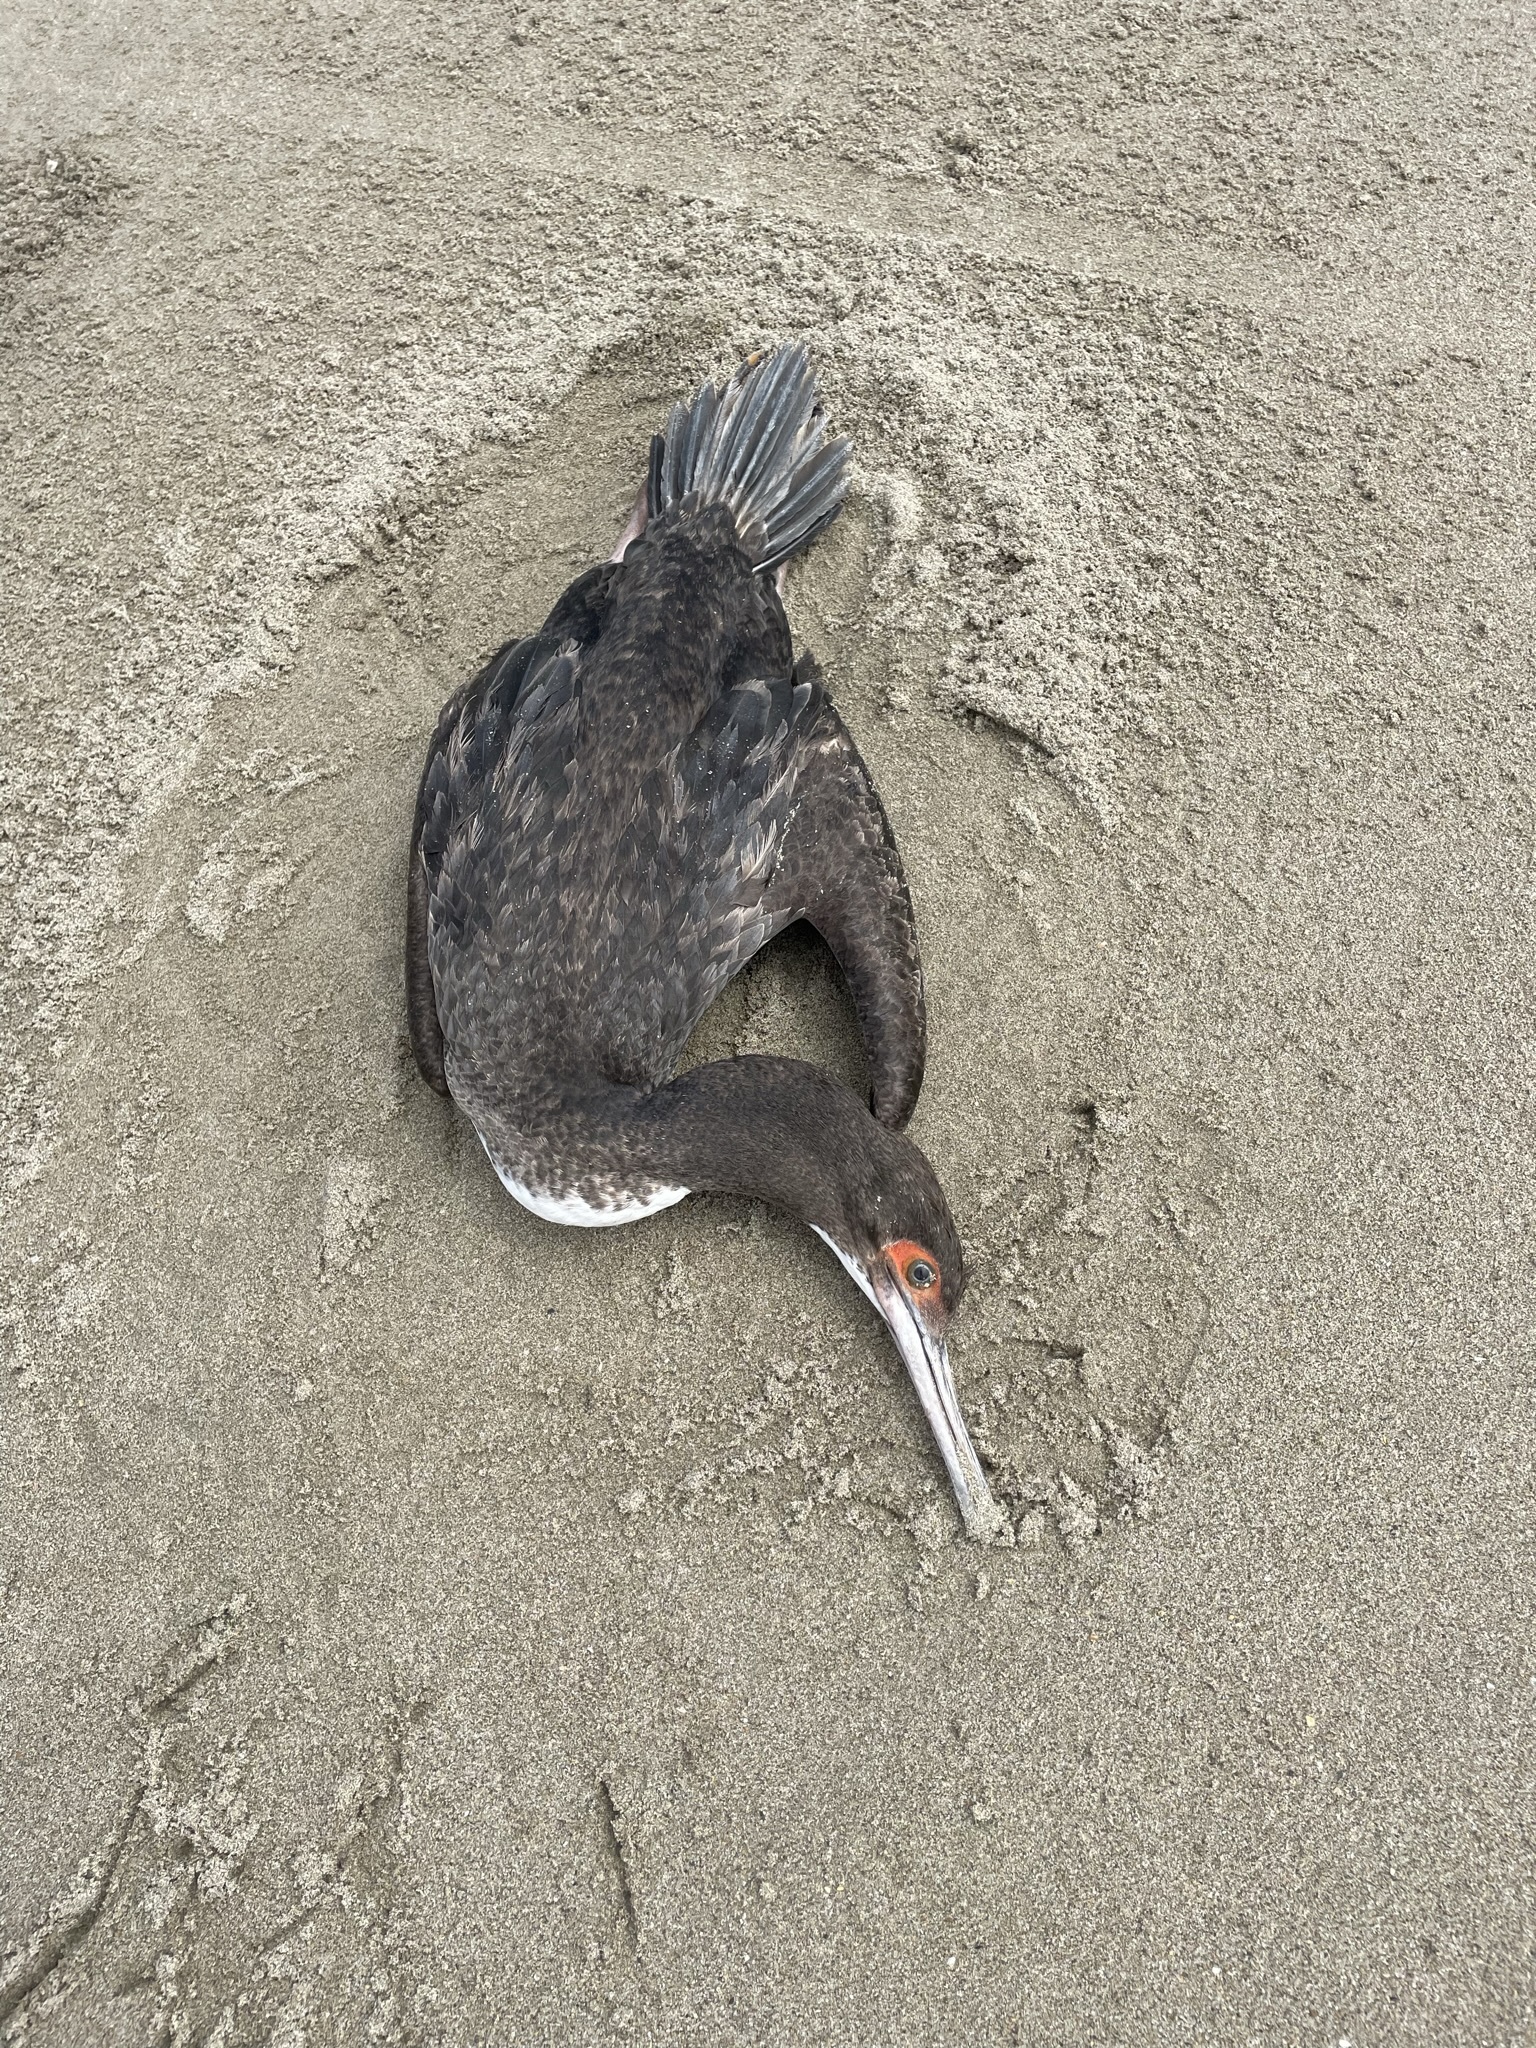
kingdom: Animalia
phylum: Chordata
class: Aves
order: Suliformes
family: Phalacrocoracidae
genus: Leucocarbo
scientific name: Leucocarbo bougainvillii
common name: Guanay cormorant
